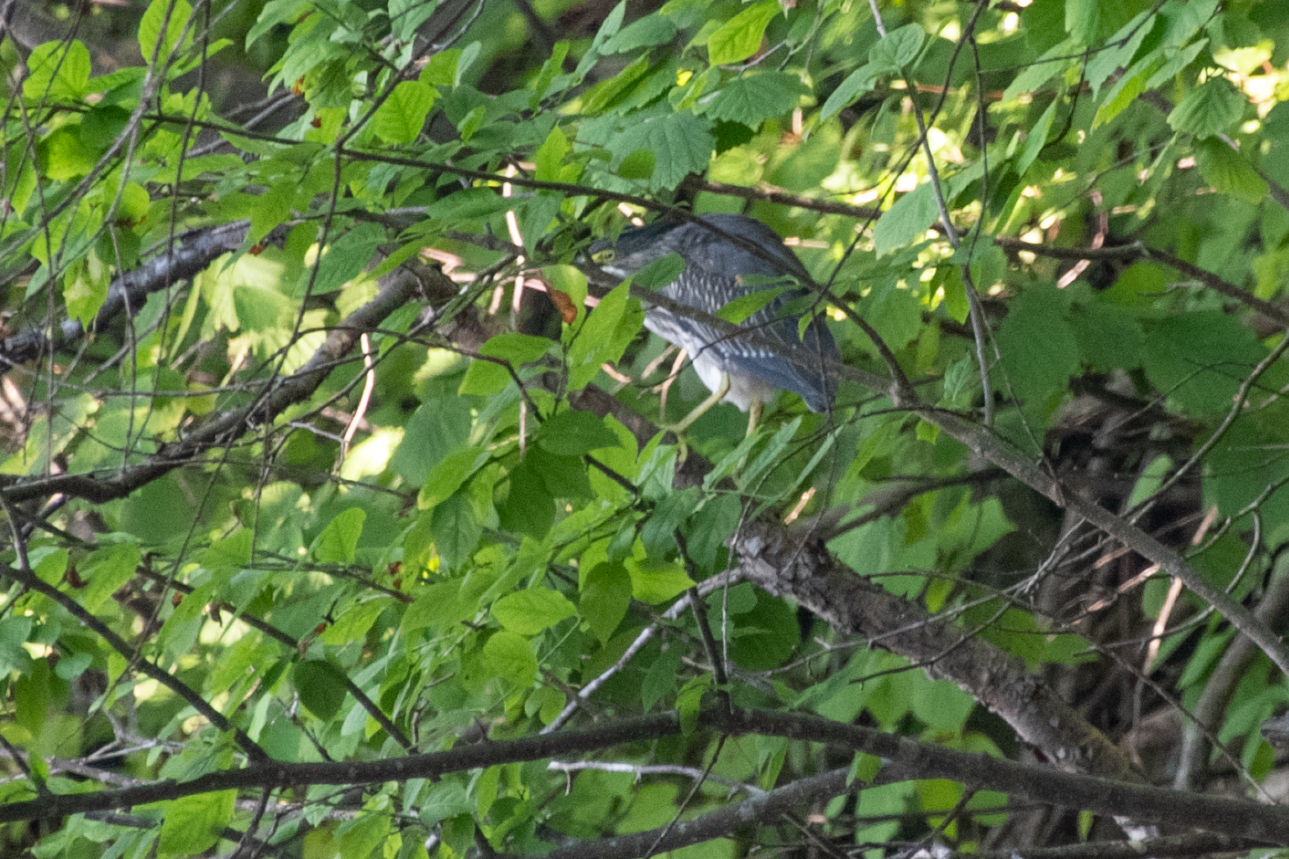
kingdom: Animalia
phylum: Chordata
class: Aves
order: Pelecaniformes
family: Ardeidae
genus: Butorides
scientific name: Butorides striata
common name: Striated heron
